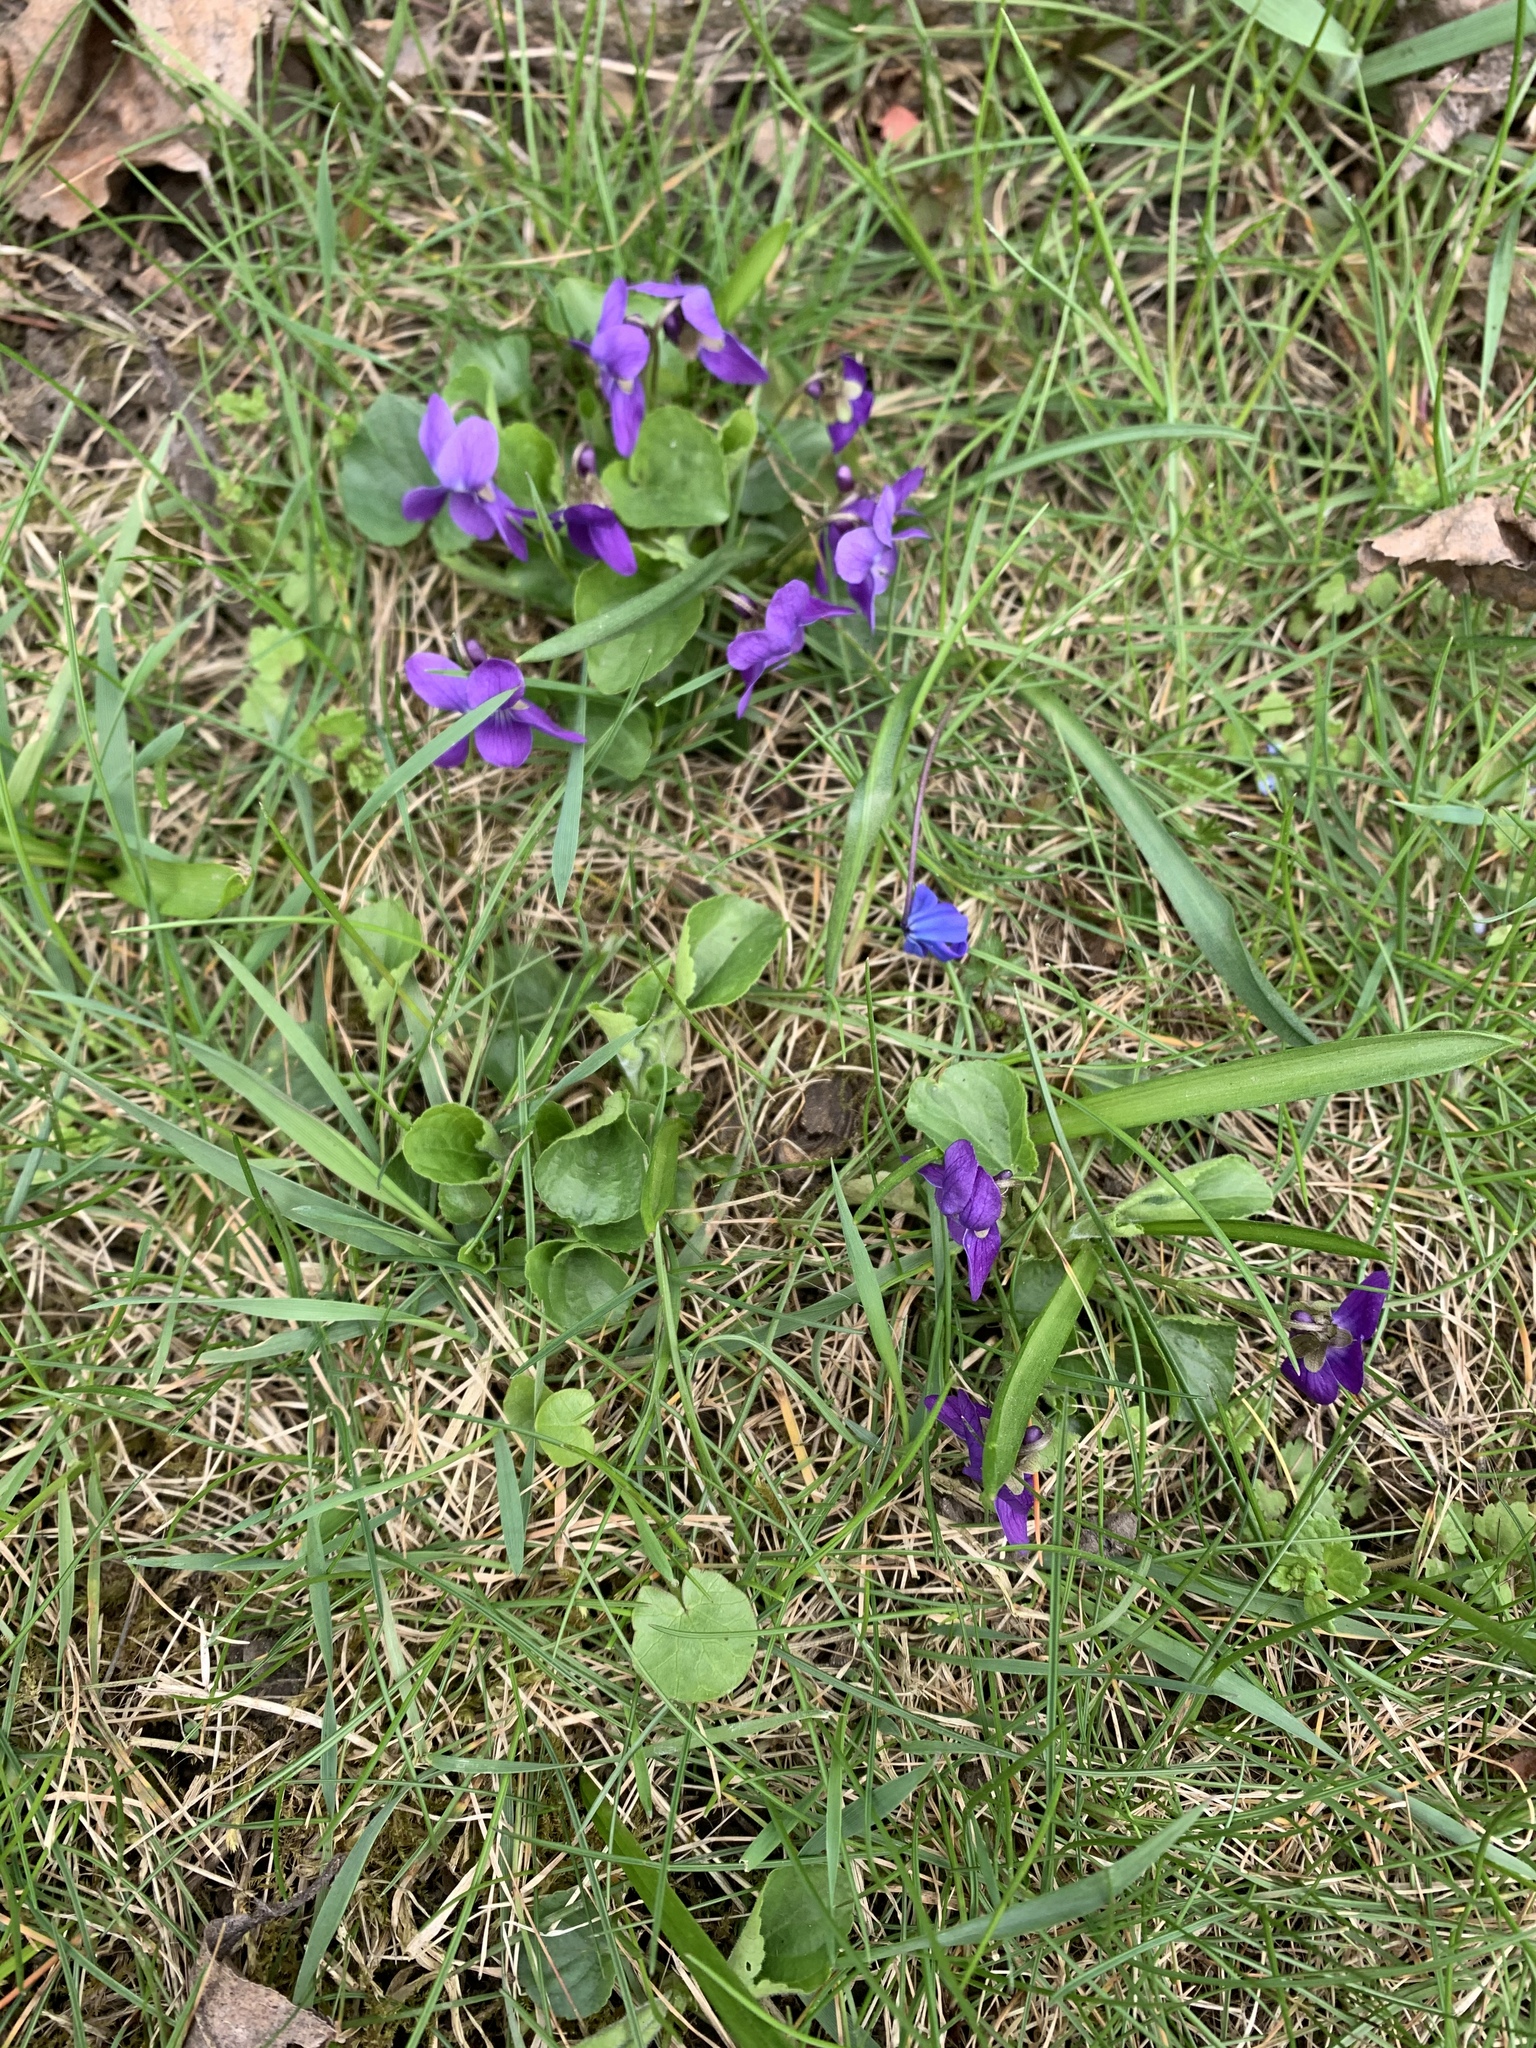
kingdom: Plantae
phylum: Tracheophyta
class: Magnoliopsida
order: Malpighiales
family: Violaceae
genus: Viola
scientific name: Viola odorata
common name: Sweet violet
